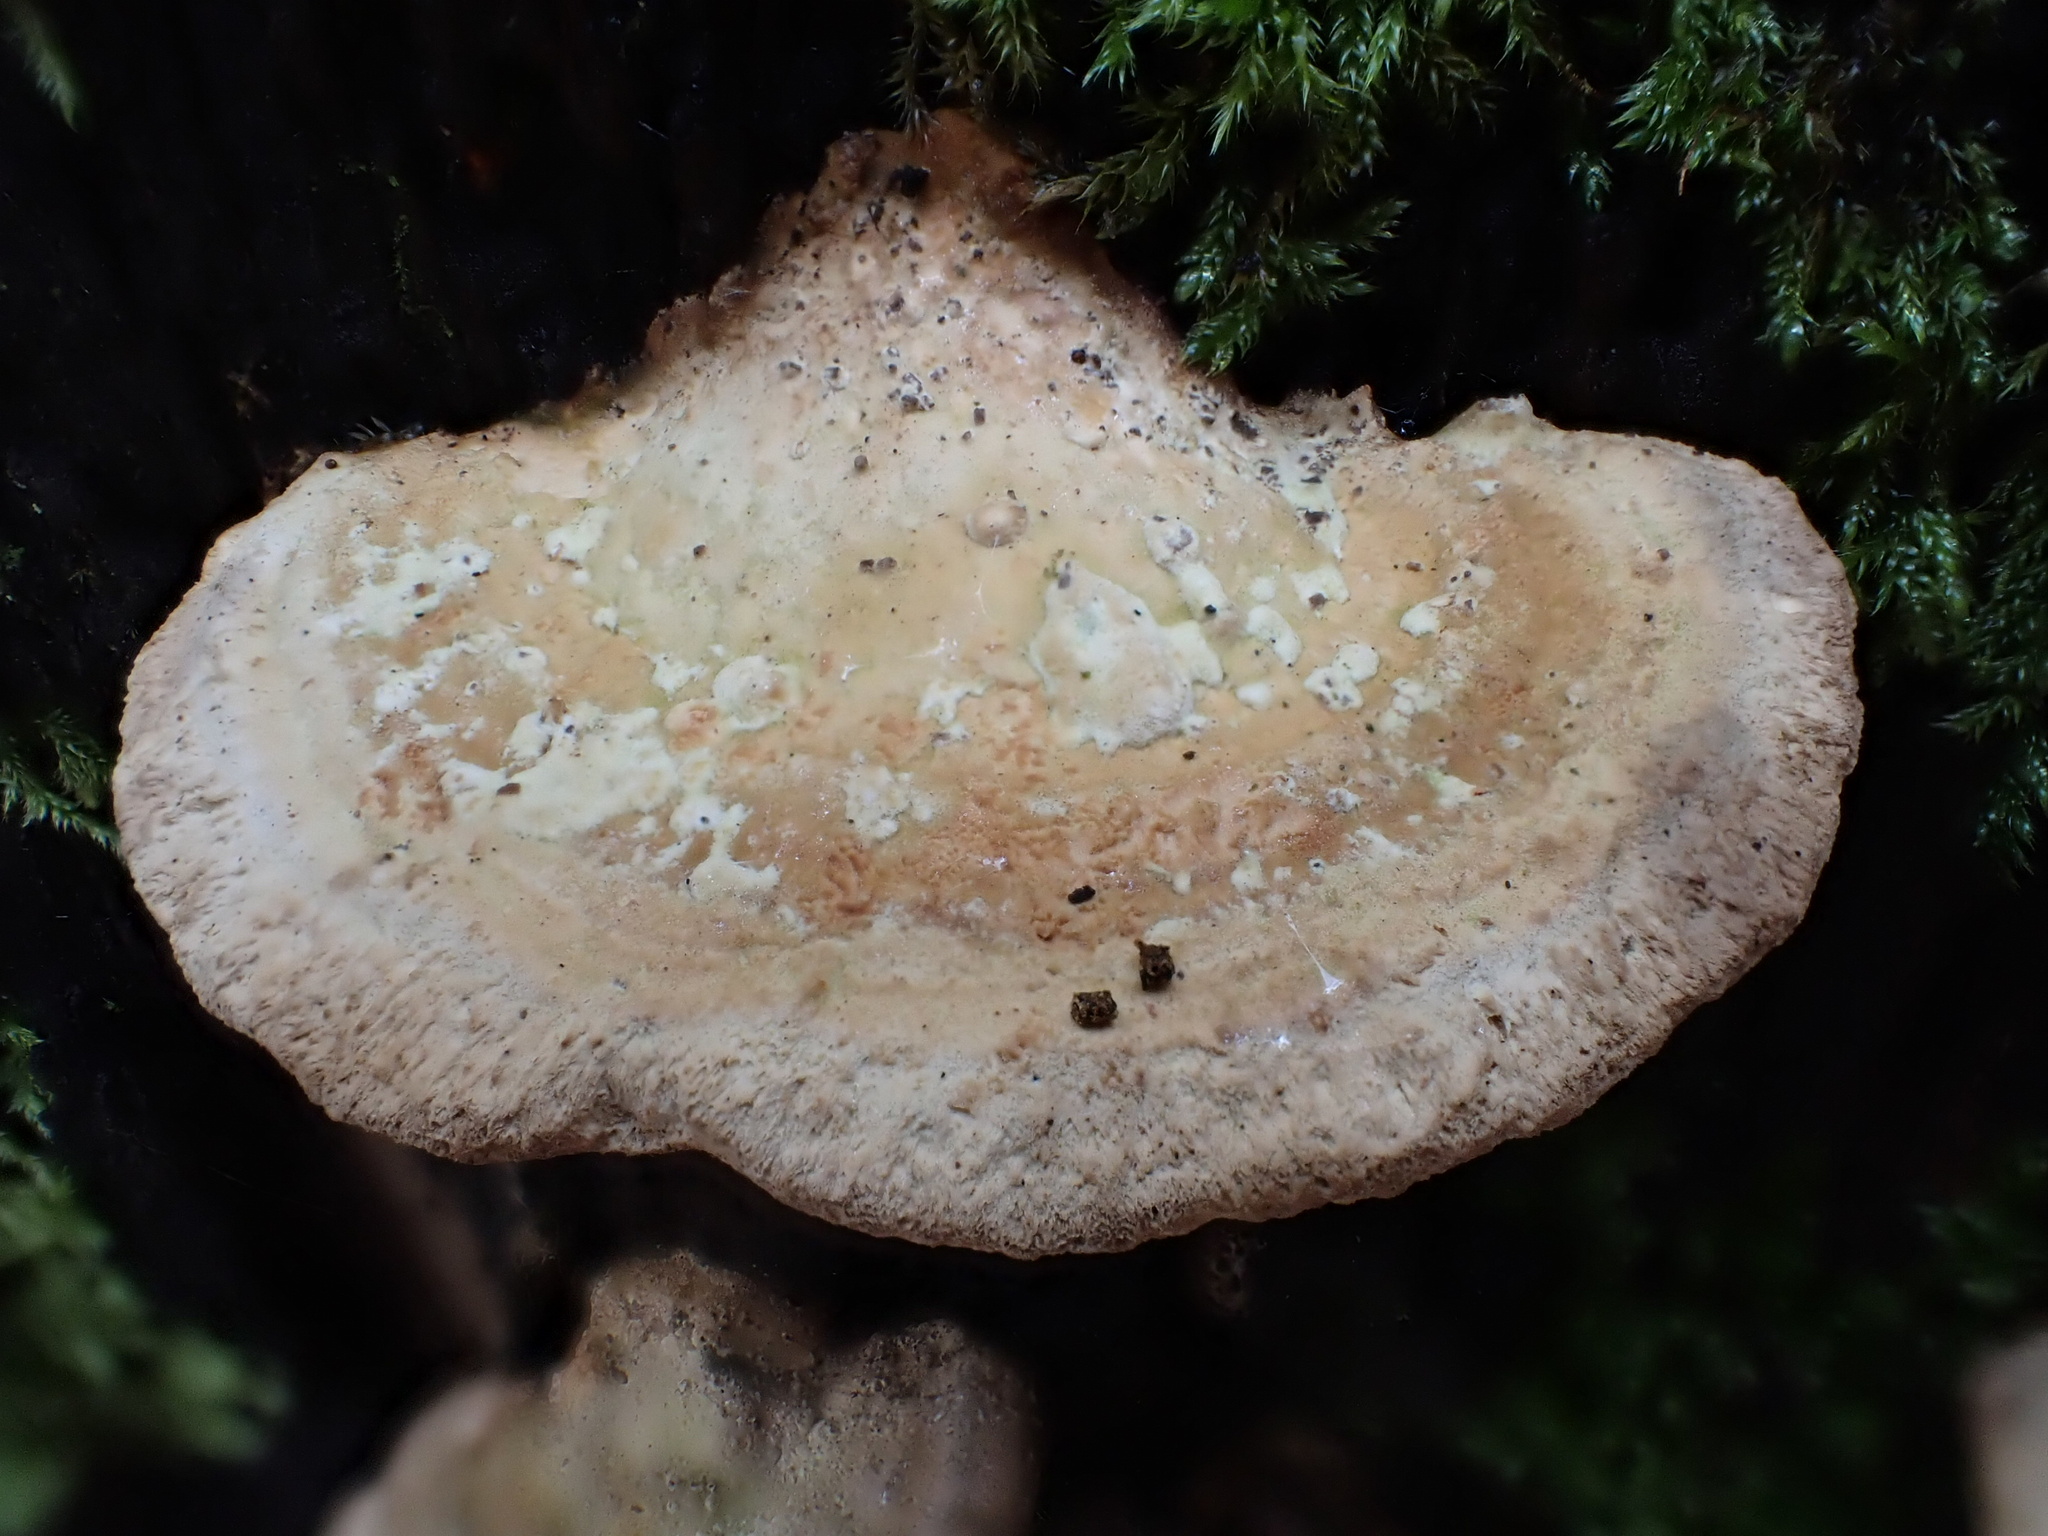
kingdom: Fungi
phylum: Basidiomycota
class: Agaricomycetes
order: Polyporales
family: Fomitopsidaceae
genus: Fomitopsis
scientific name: Fomitopsis
